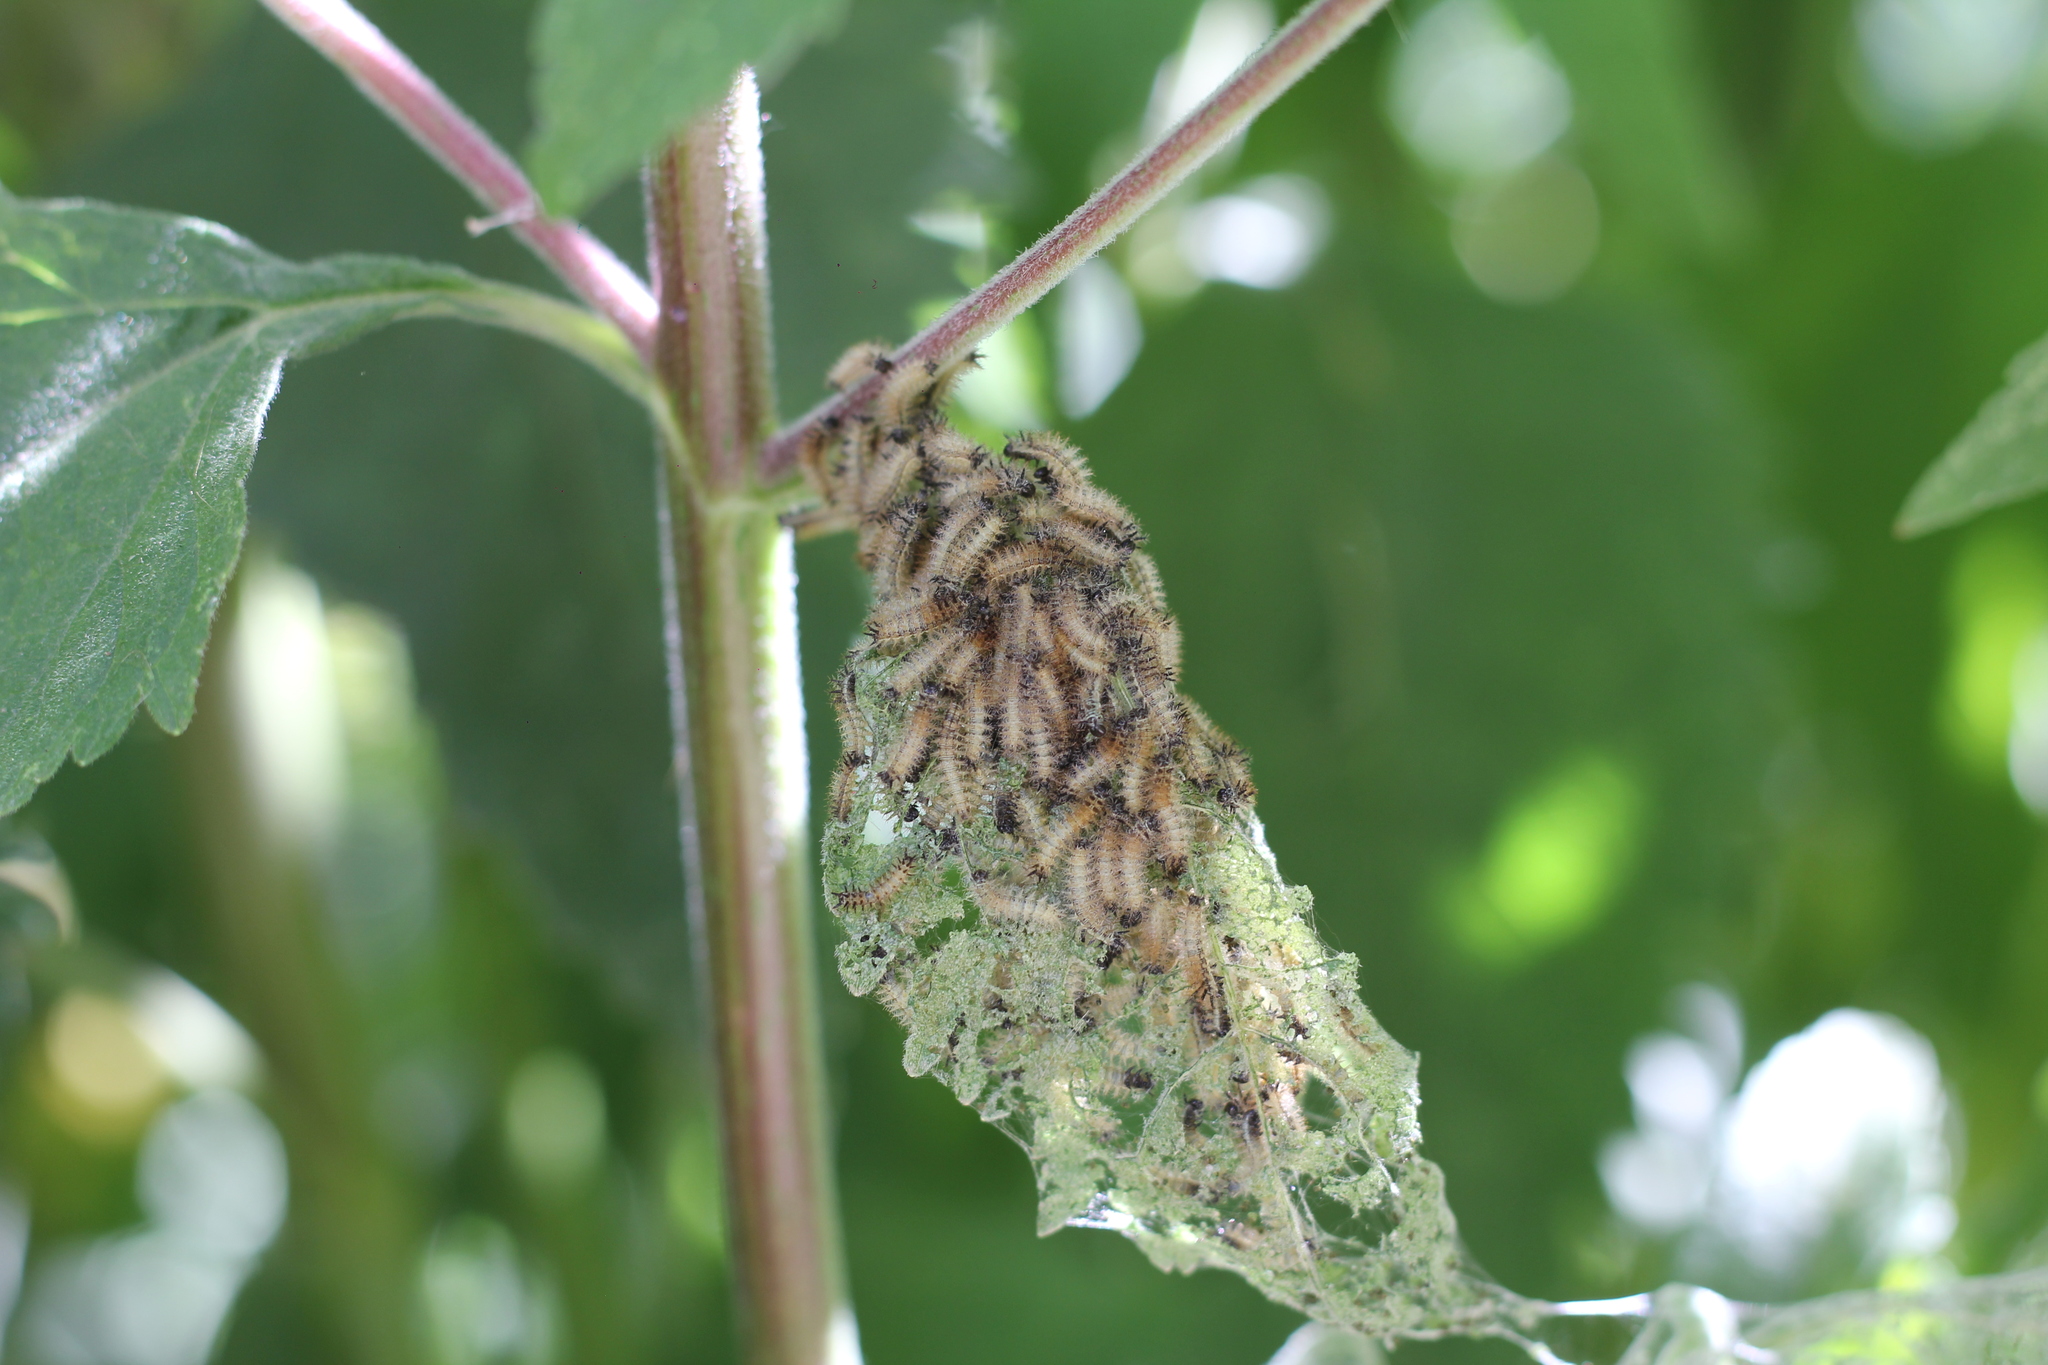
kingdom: Animalia
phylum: Arthropoda
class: Insecta
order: Lepidoptera
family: Nymphalidae
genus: Actinote
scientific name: Actinote
